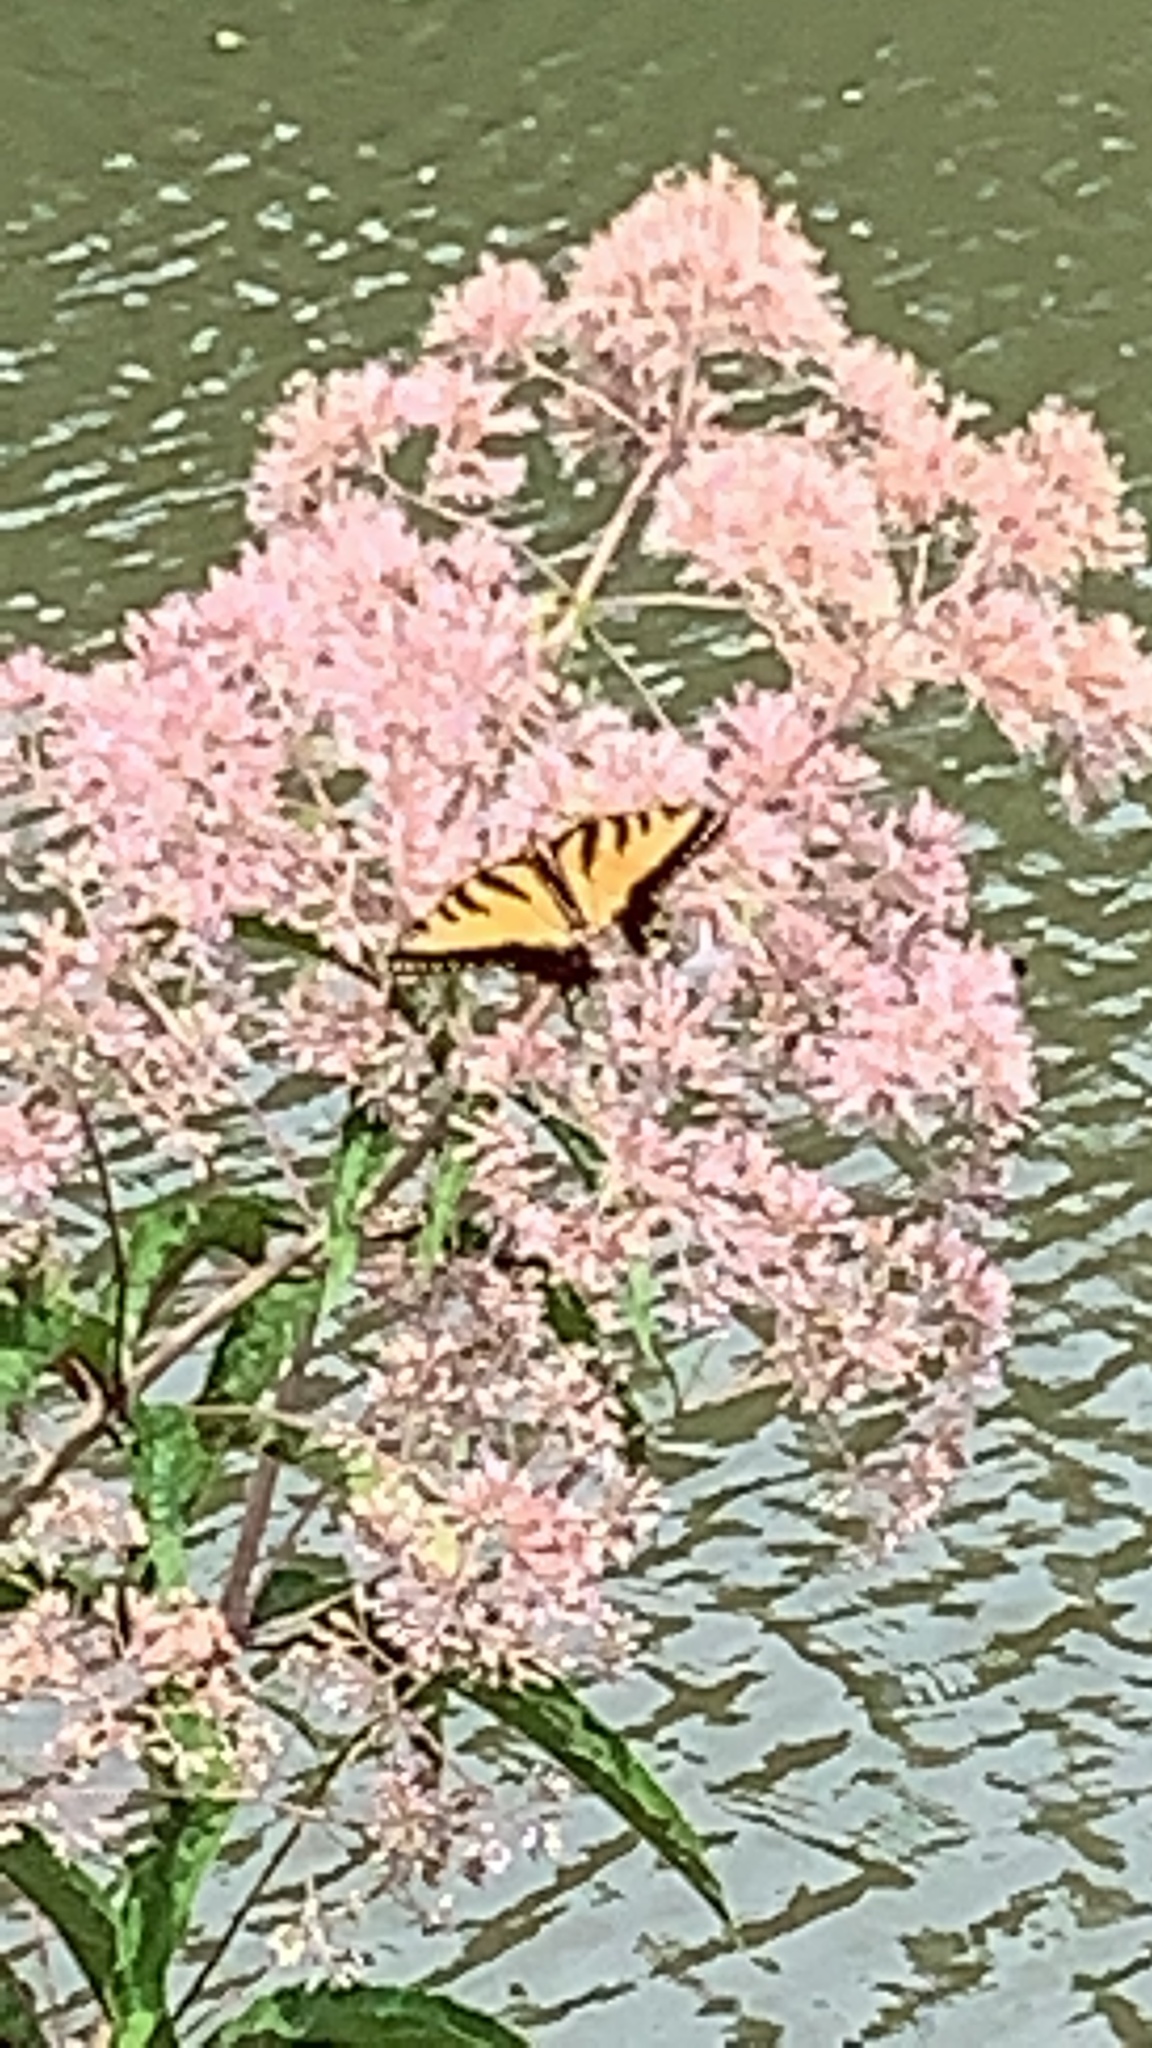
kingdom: Animalia
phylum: Arthropoda
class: Insecta
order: Lepidoptera
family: Papilionidae
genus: Papilio
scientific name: Papilio glaucus
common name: Tiger swallowtail
